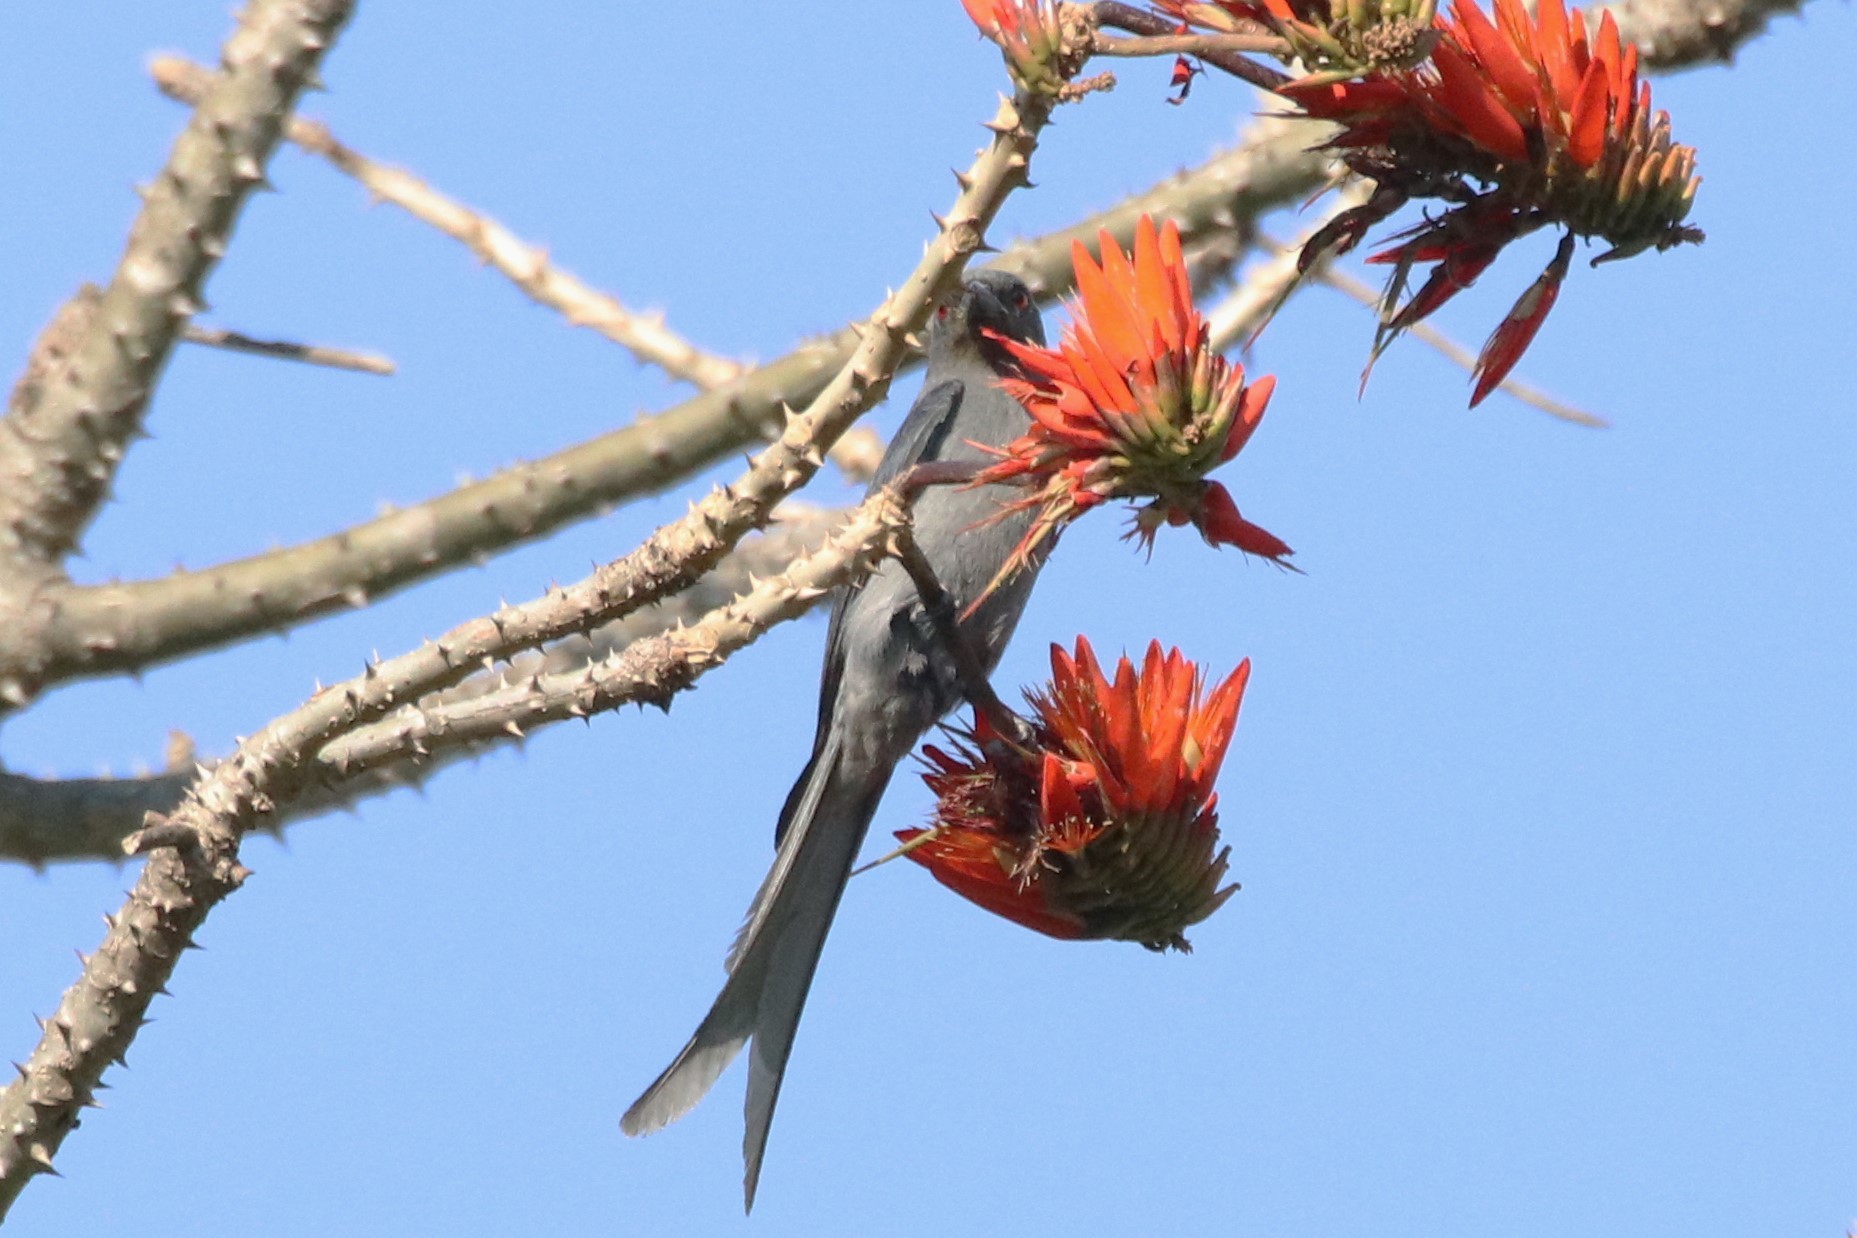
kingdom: Animalia
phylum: Chordata
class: Aves
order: Passeriformes
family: Dicruridae
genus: Dicrurus
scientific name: Dicrurus leucophaeus
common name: Ashy drongo
